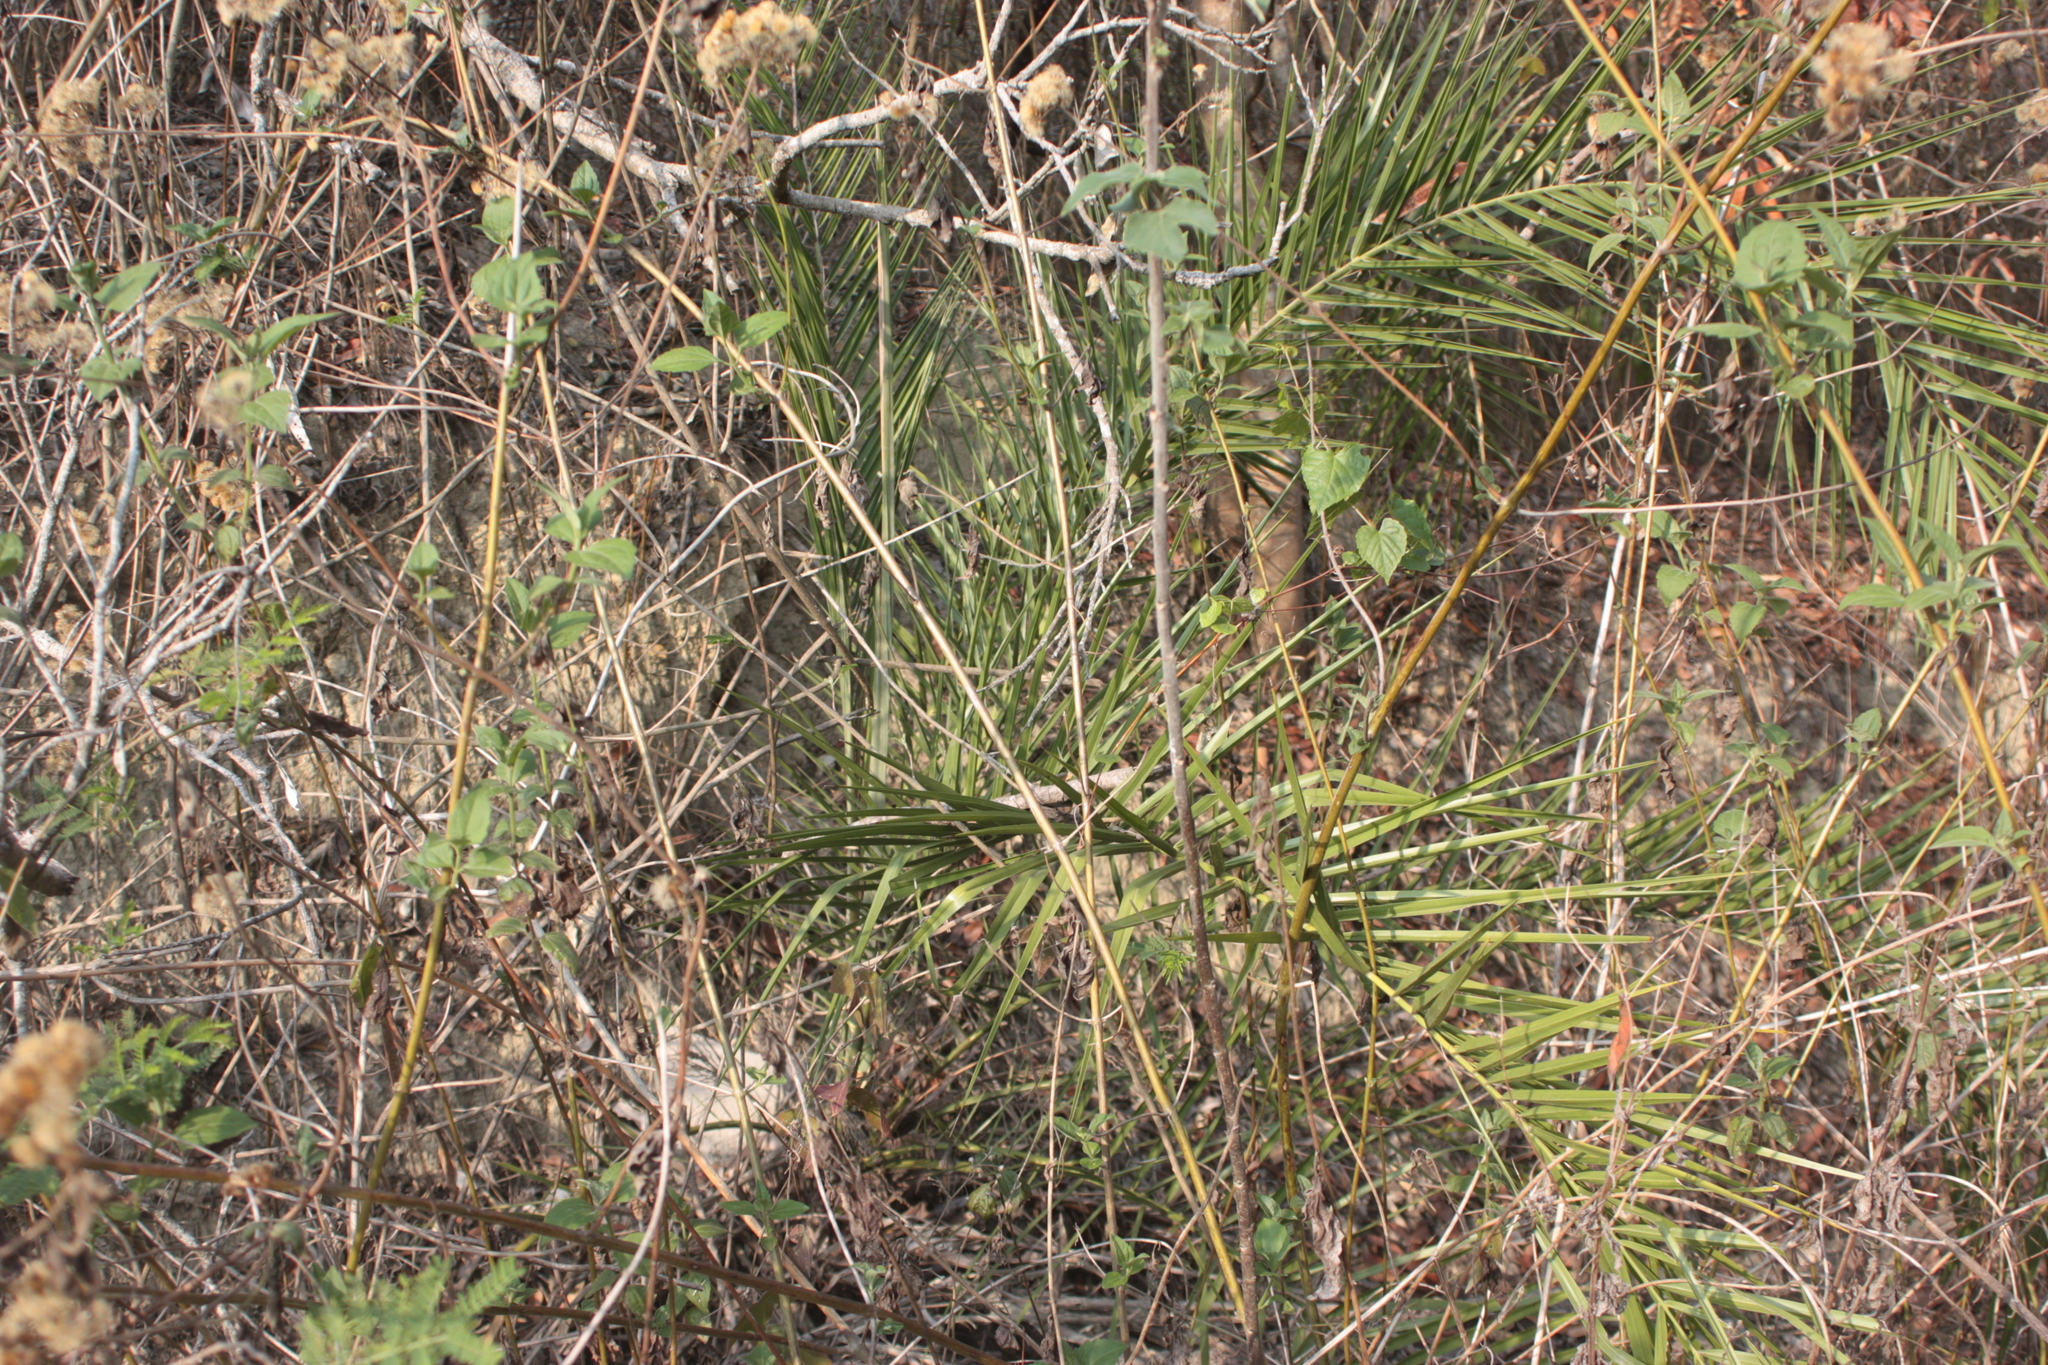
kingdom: Plantae
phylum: Tracheophyta
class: Liliopsida
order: Arecales
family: Arecaceae
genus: Phoenix
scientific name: Phoenix loureiroi
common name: Loureiro's palm
